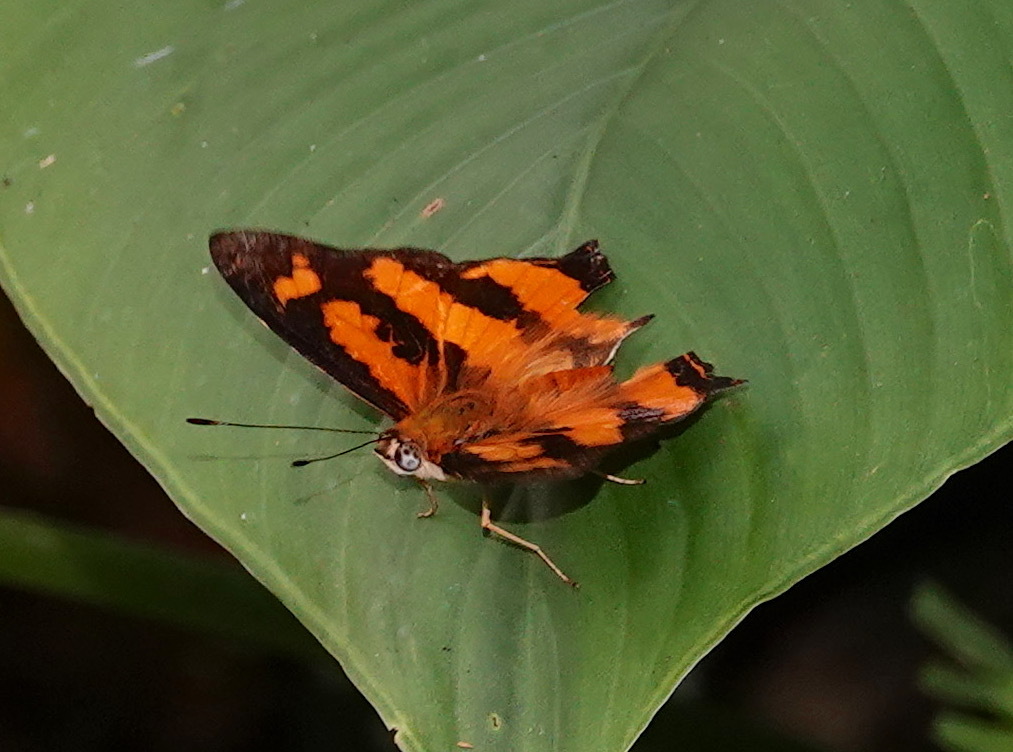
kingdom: Animalia
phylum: Arthropoda
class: Insecta
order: Lepidoptera
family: Nymphalidae
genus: Symbrenthia
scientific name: Symbrenthia hypselis
